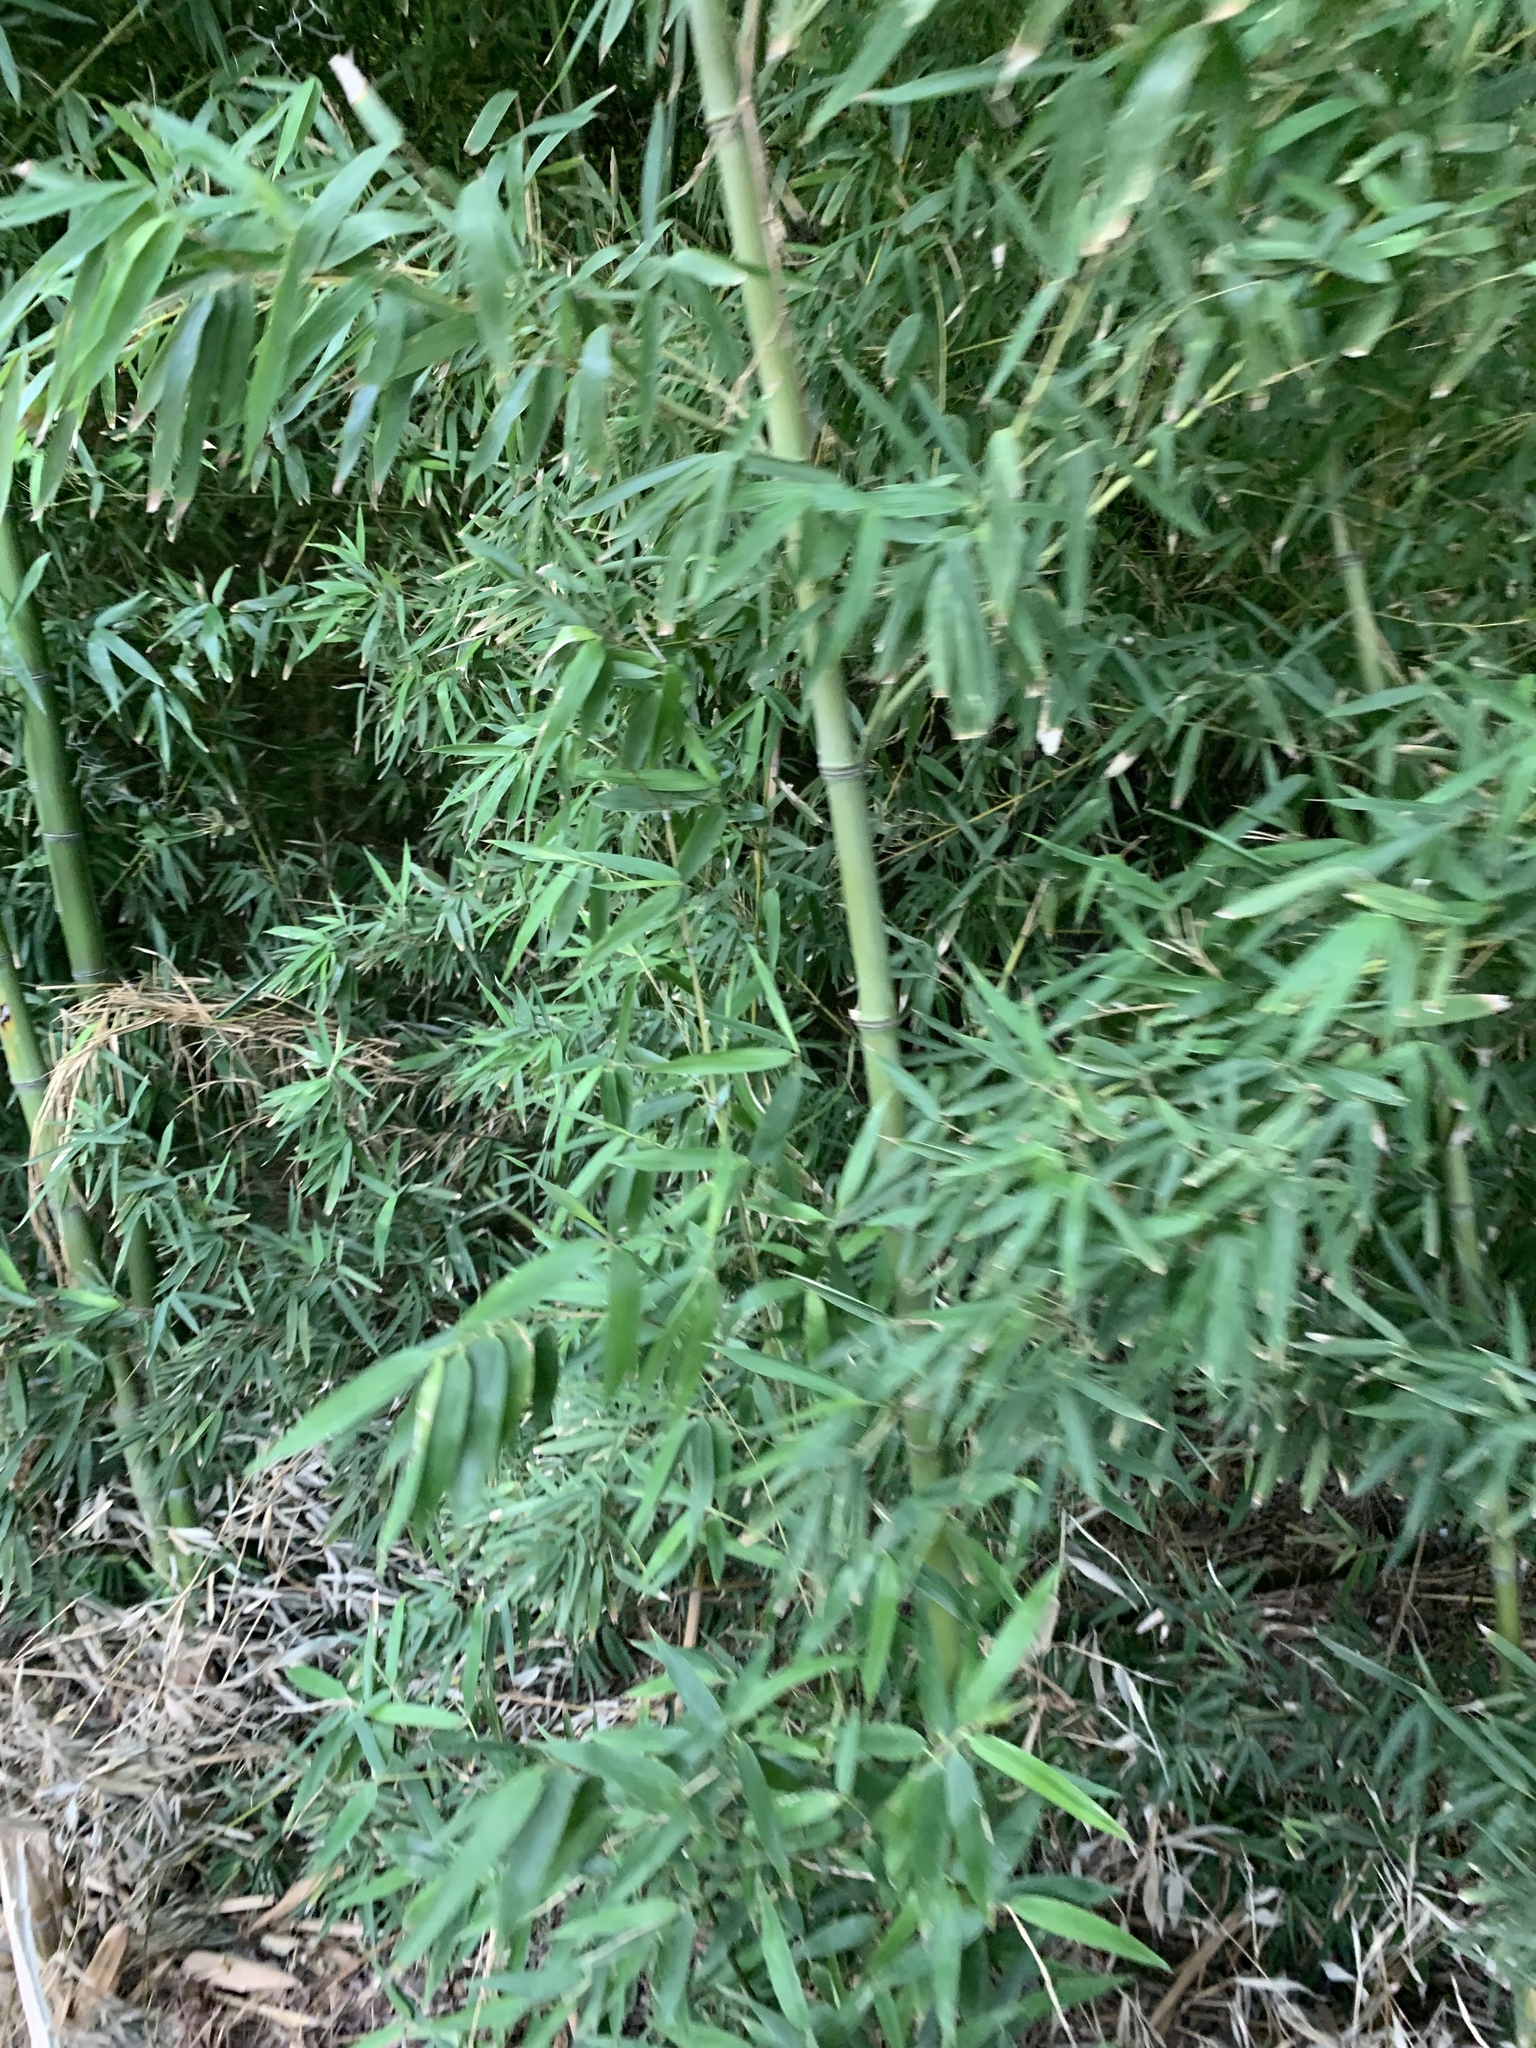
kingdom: Plantae
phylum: Tracheophyta
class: Liliopsida
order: Poales
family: Poaceae
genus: Phyllostachys
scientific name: Phyllostachys aurea
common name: Golden bamboo
